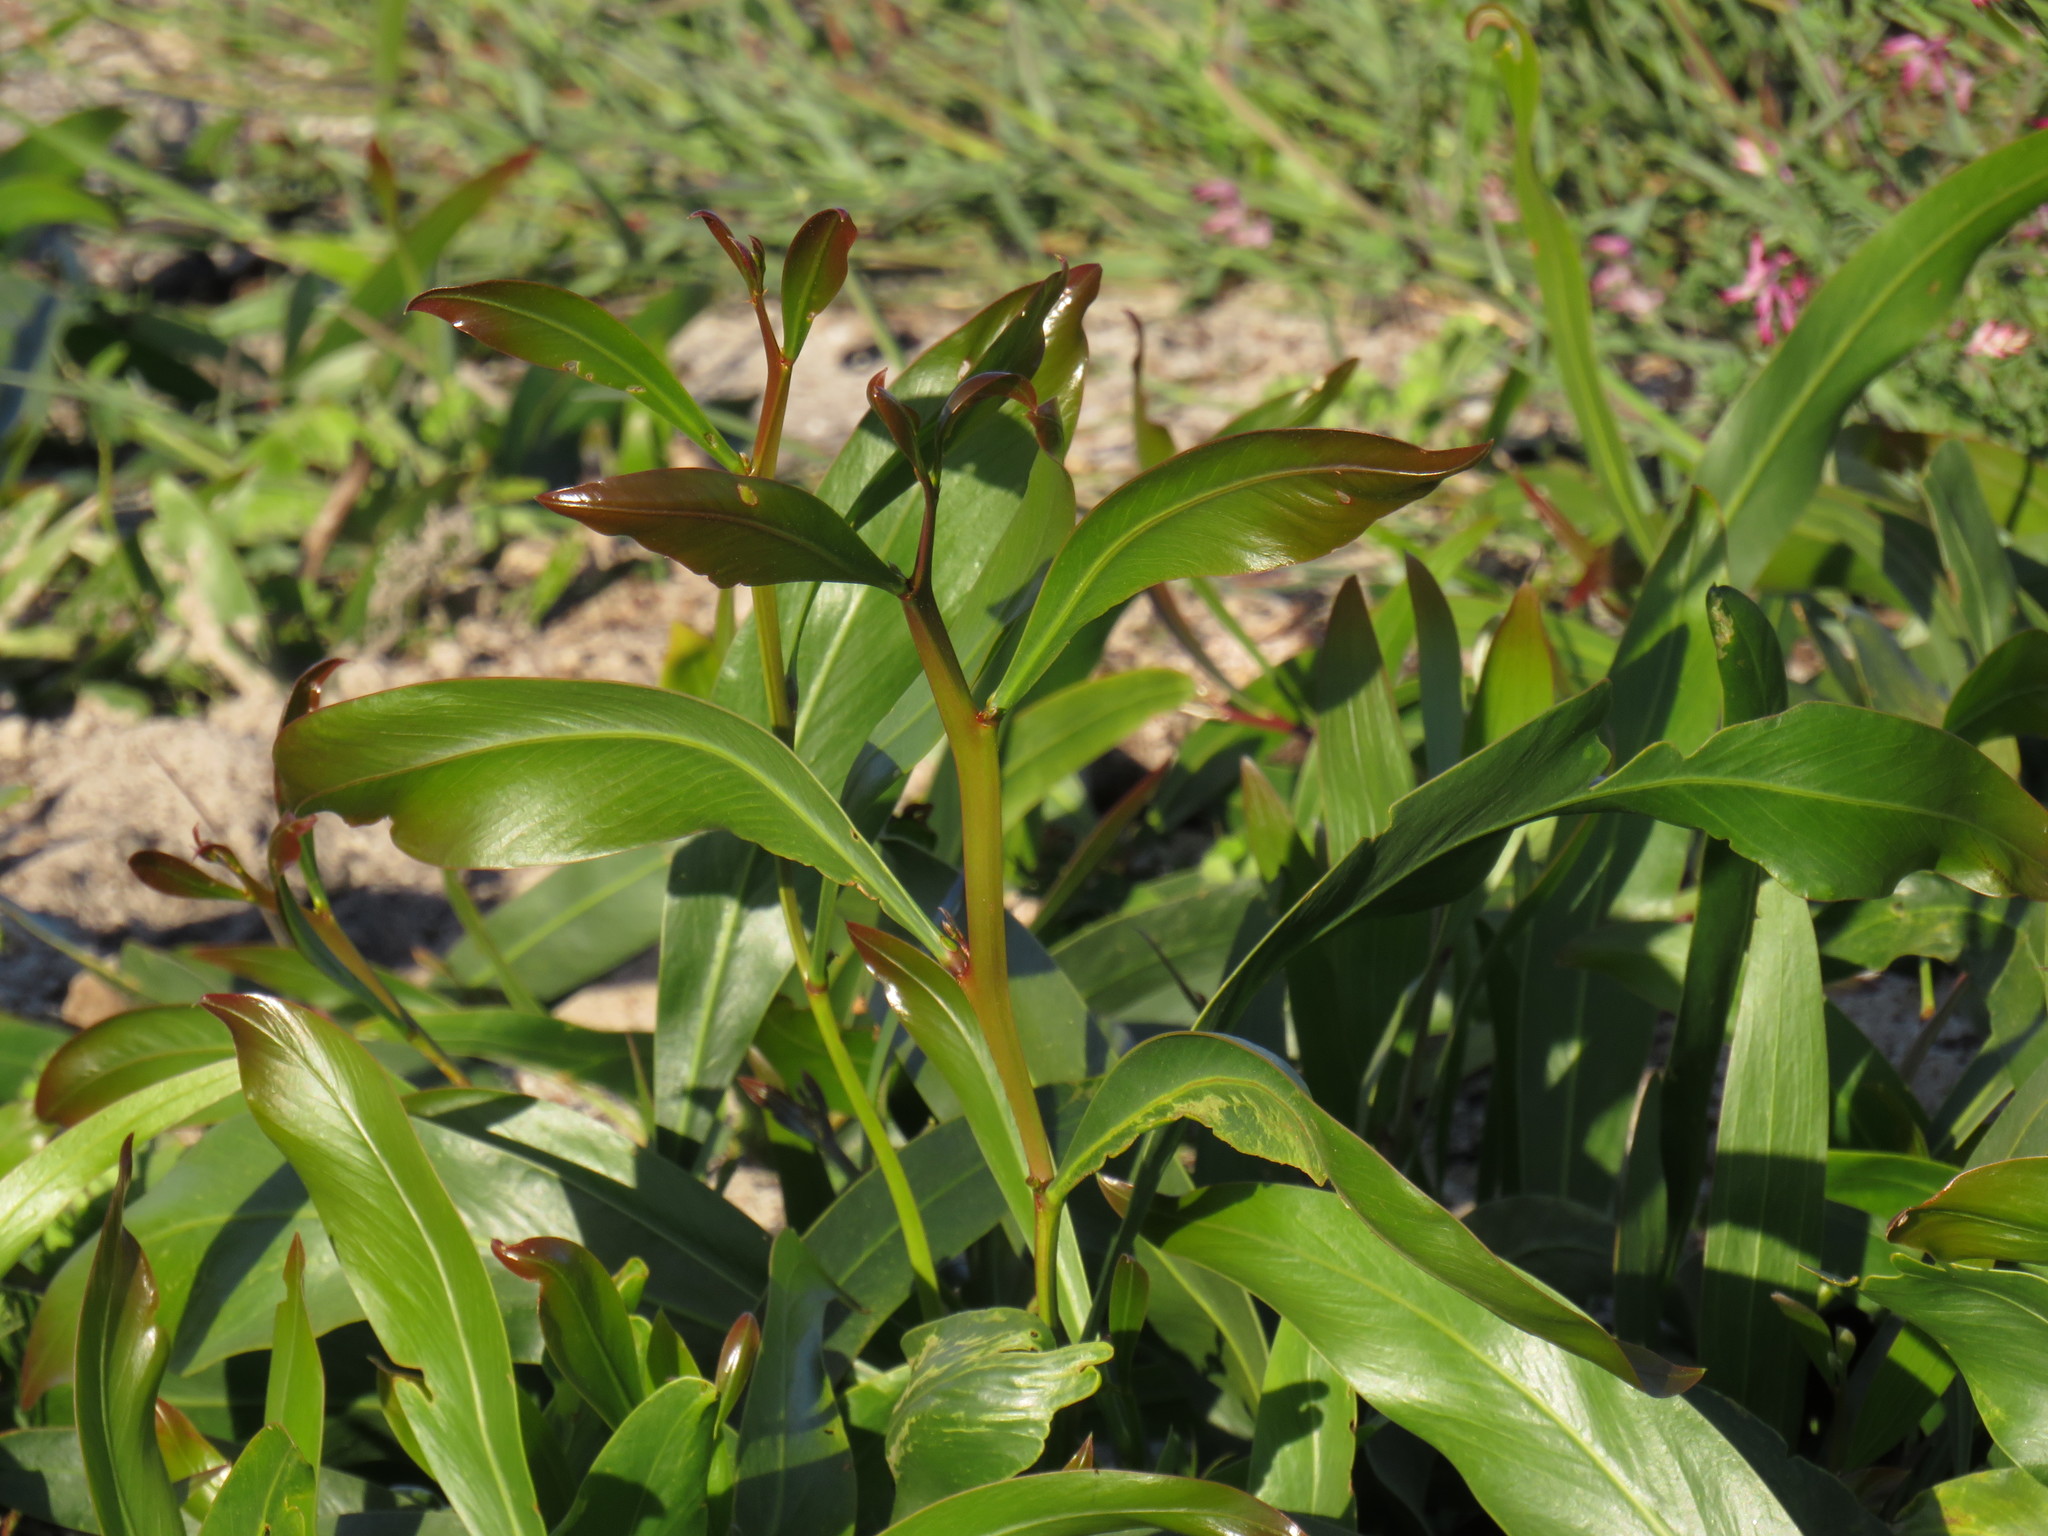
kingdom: Plantae
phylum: Tracheophyta
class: Magnoliopsida
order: Fabales
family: Fabaceae
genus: Acacia
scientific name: Acacia saligna
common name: Orange wattle
